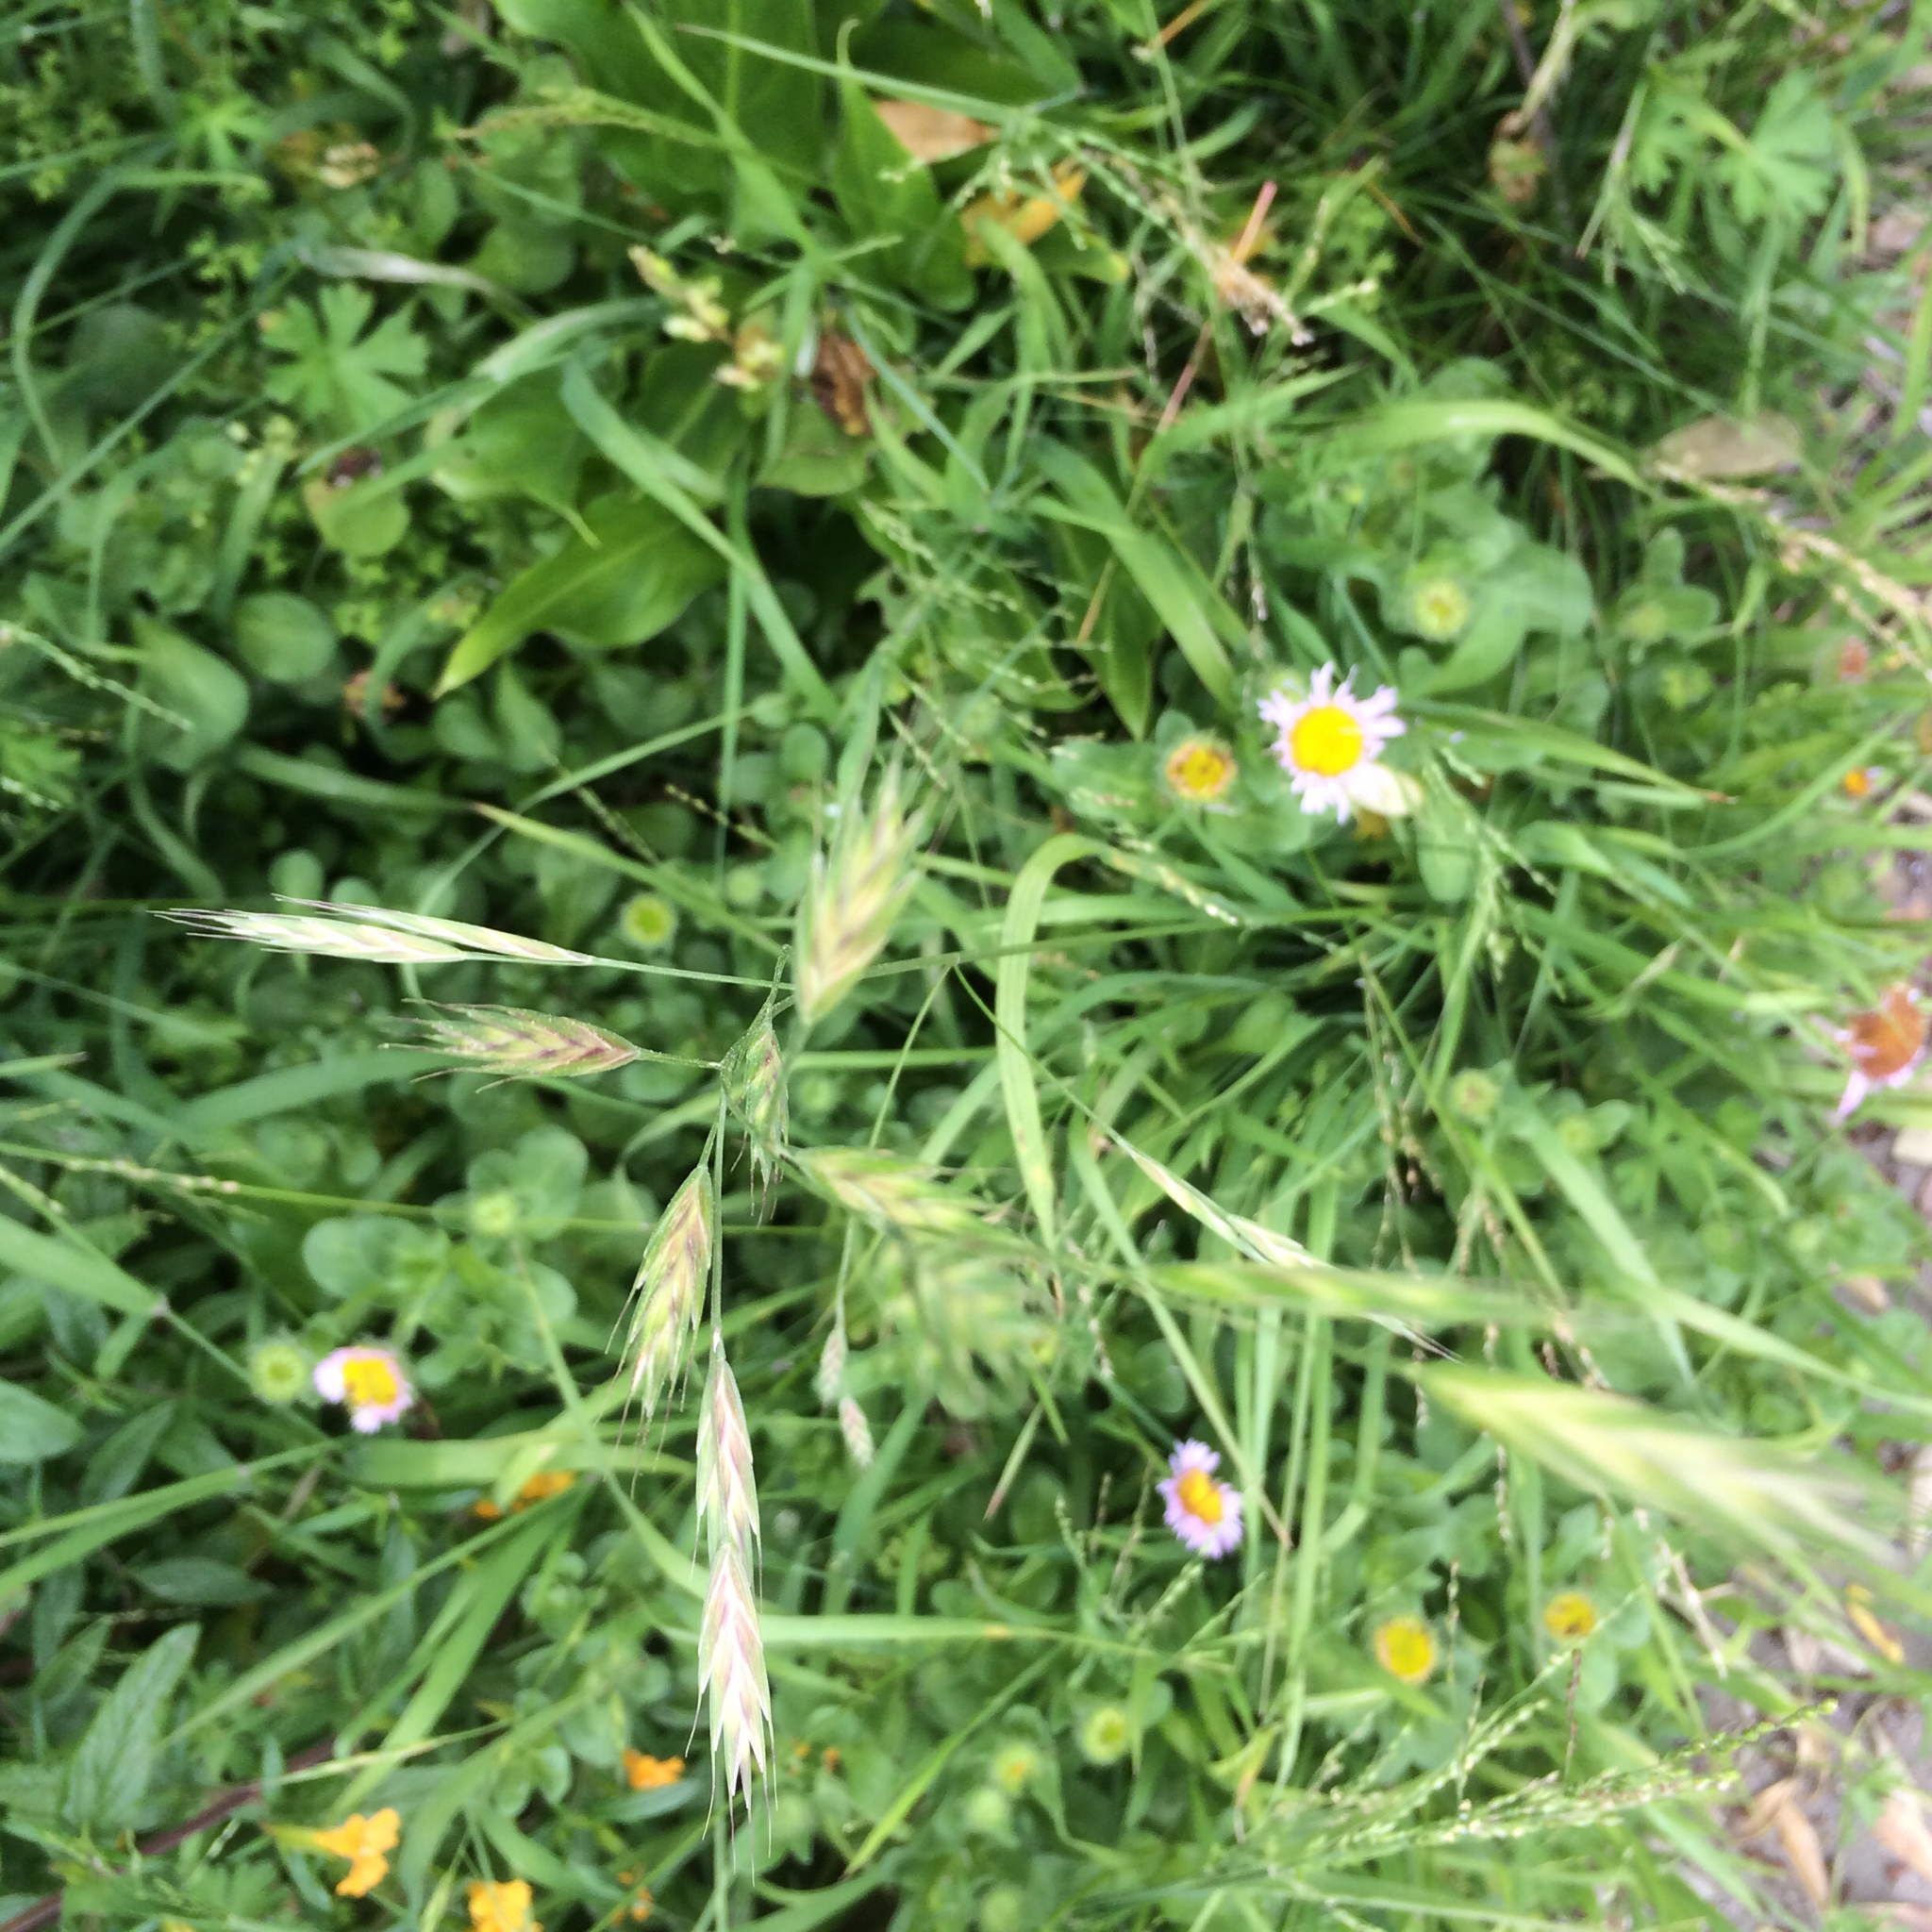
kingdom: Plantae
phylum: Tracheophyta
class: Liliopsida
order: Poales
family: Poaceae
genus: Bromus
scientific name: Bromus carinatus
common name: Mountain brome
